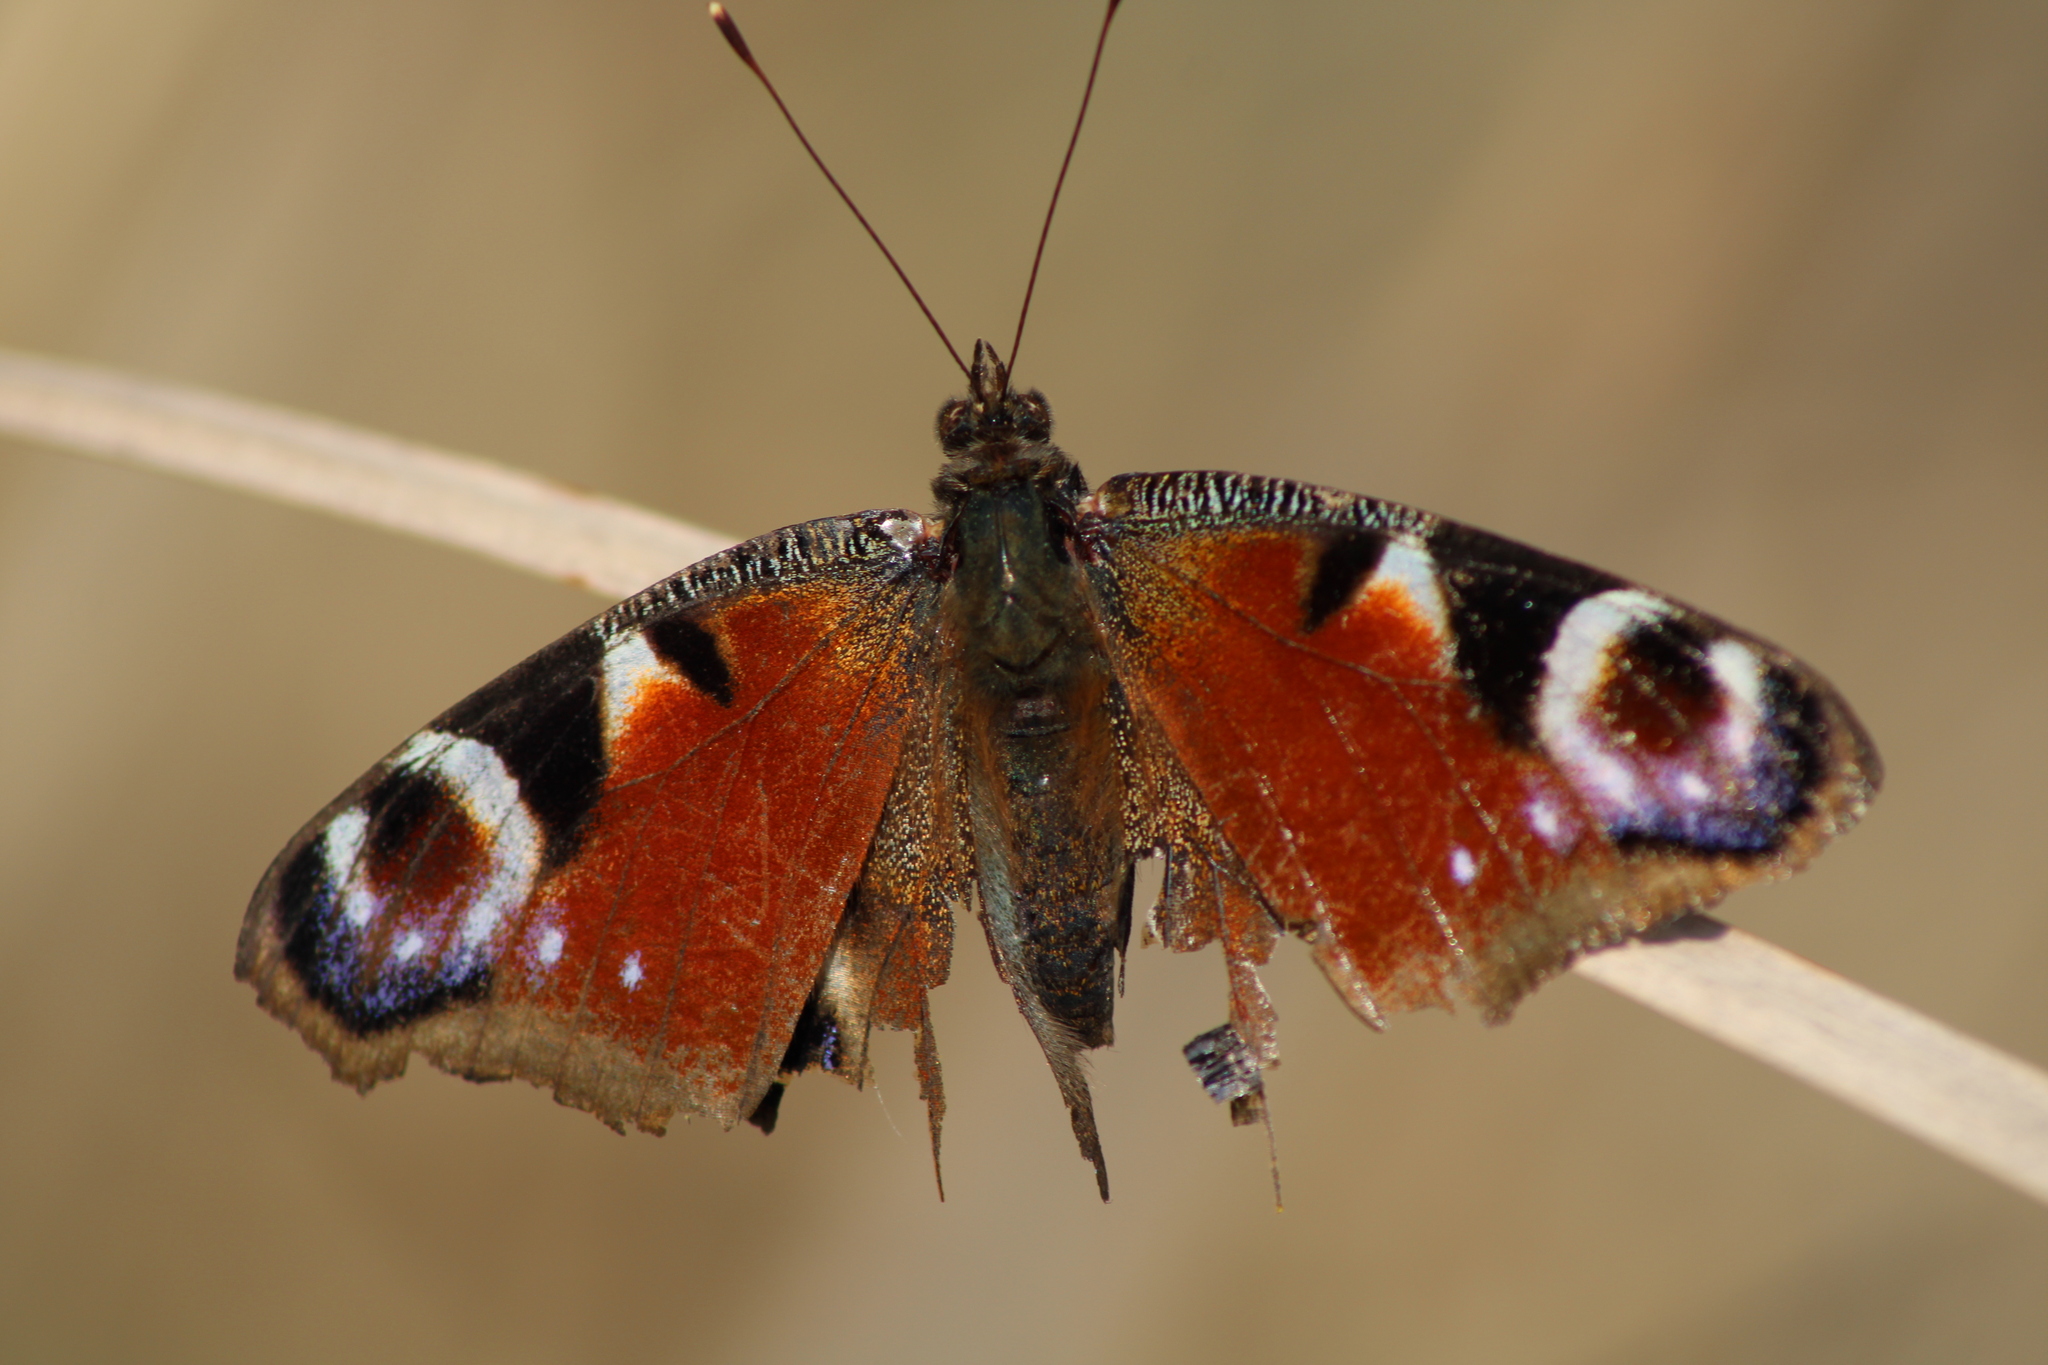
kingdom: Animalia
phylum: Arthropoda
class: Insecta
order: Lepidoptera
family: Nymphalidae
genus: Aglais
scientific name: Aglais io
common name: Peacock
